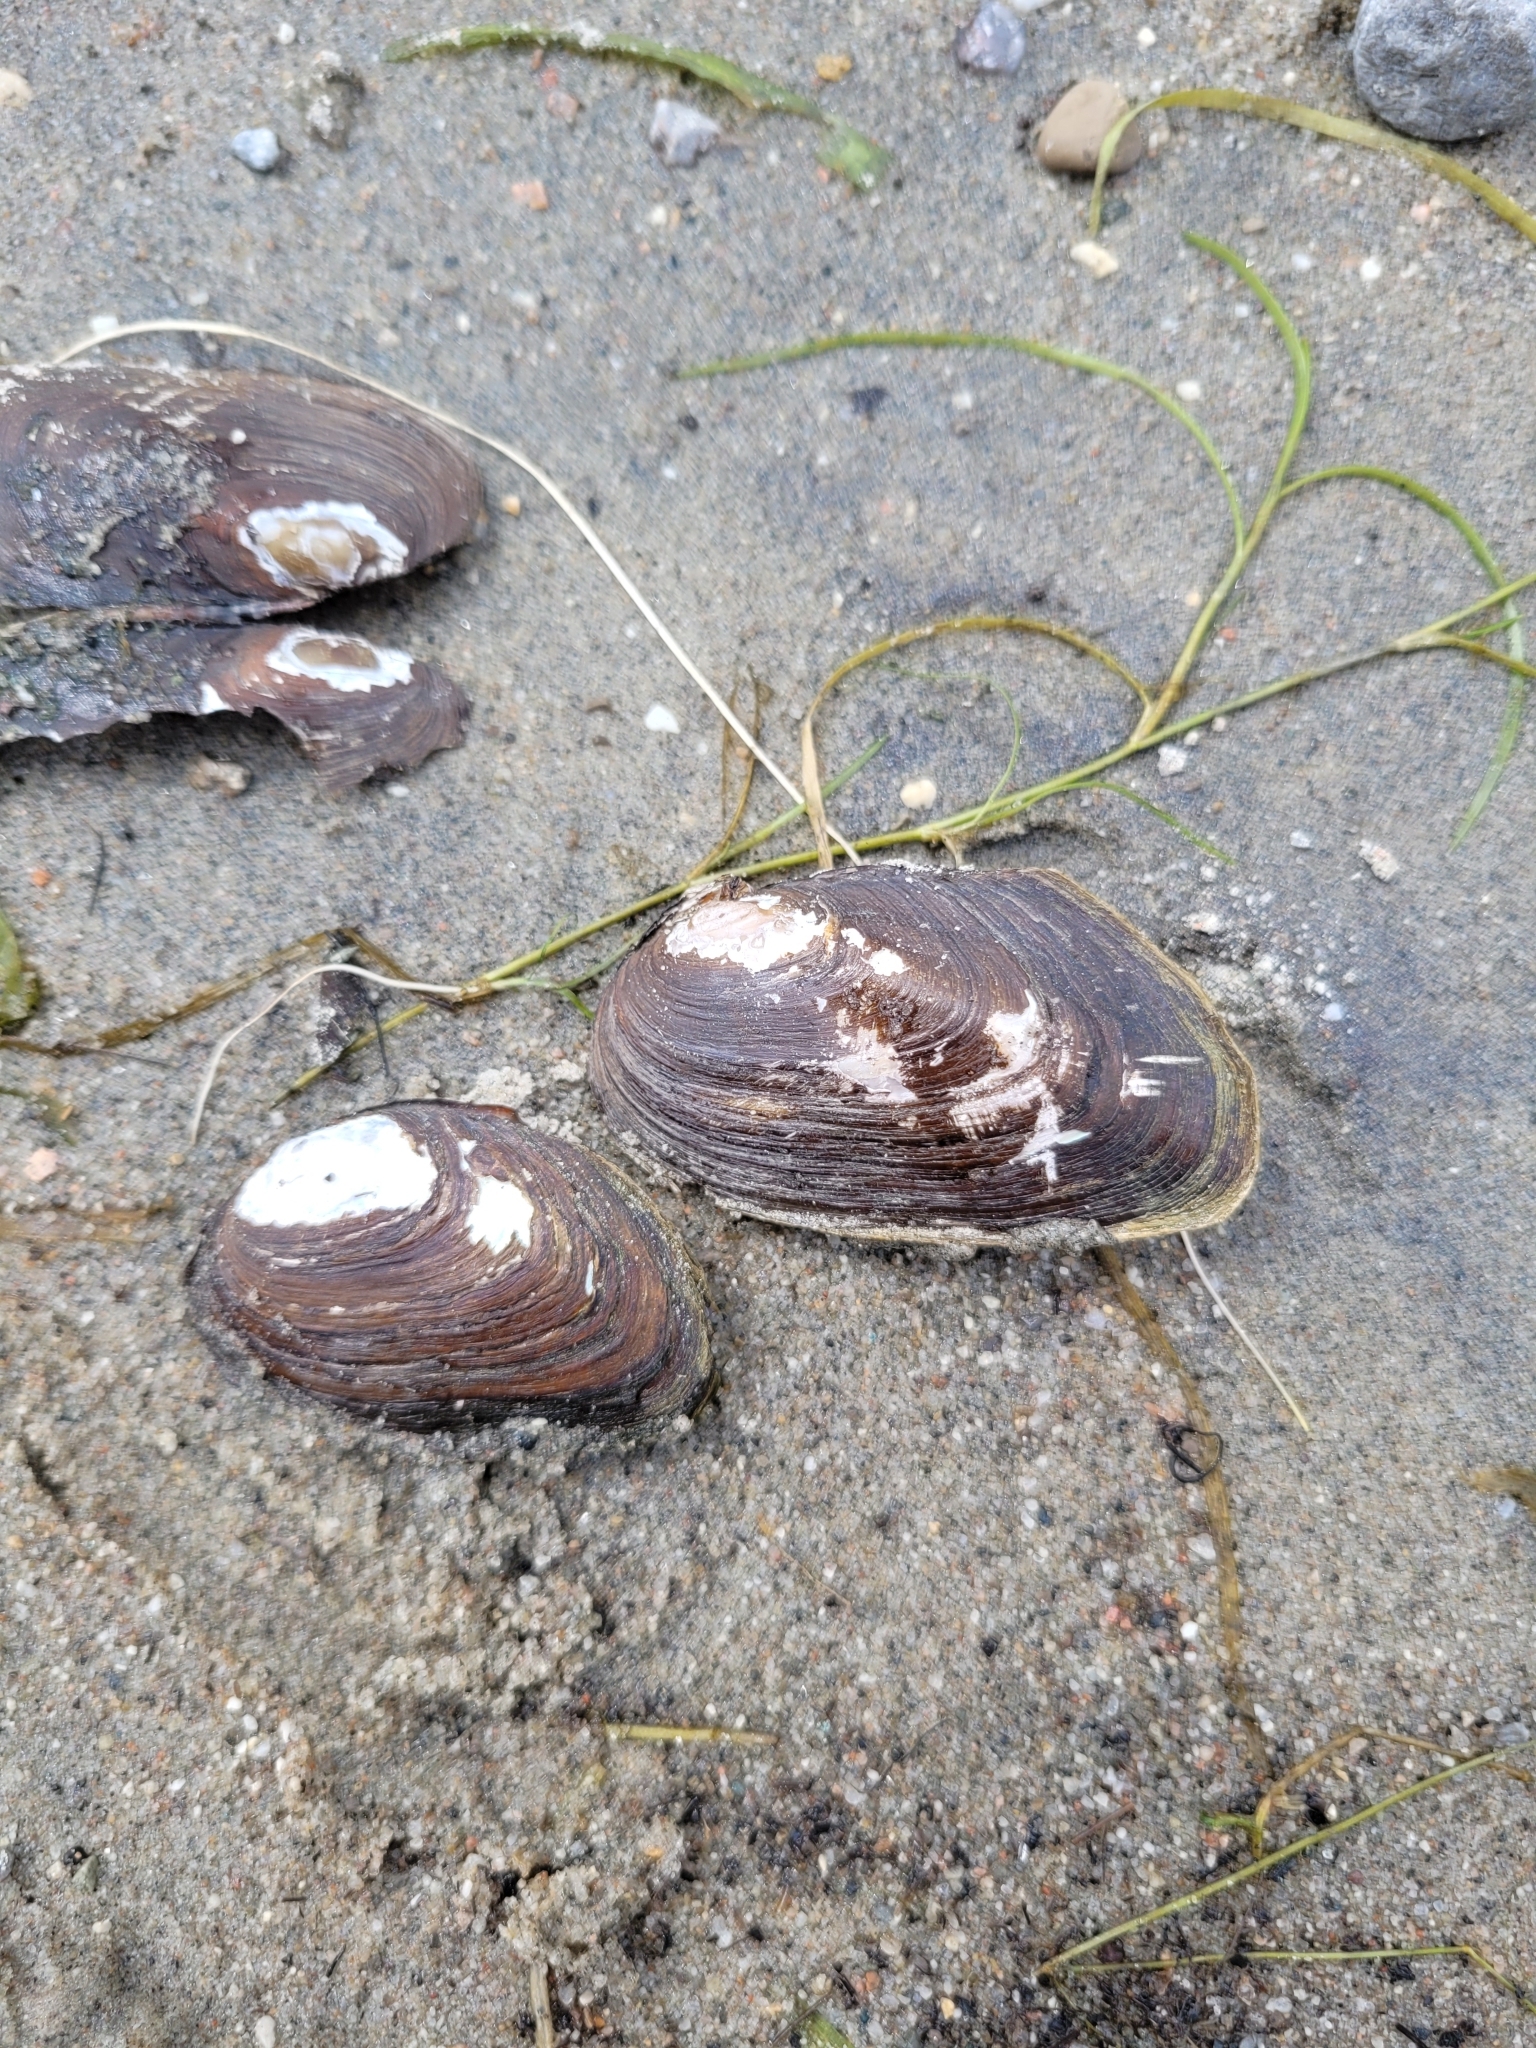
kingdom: Animalia
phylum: Mollusca
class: Bivalvia
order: Unionida
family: Unionidae
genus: Elliptio
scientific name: Elliptio complanata
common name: Eastern elliptio
